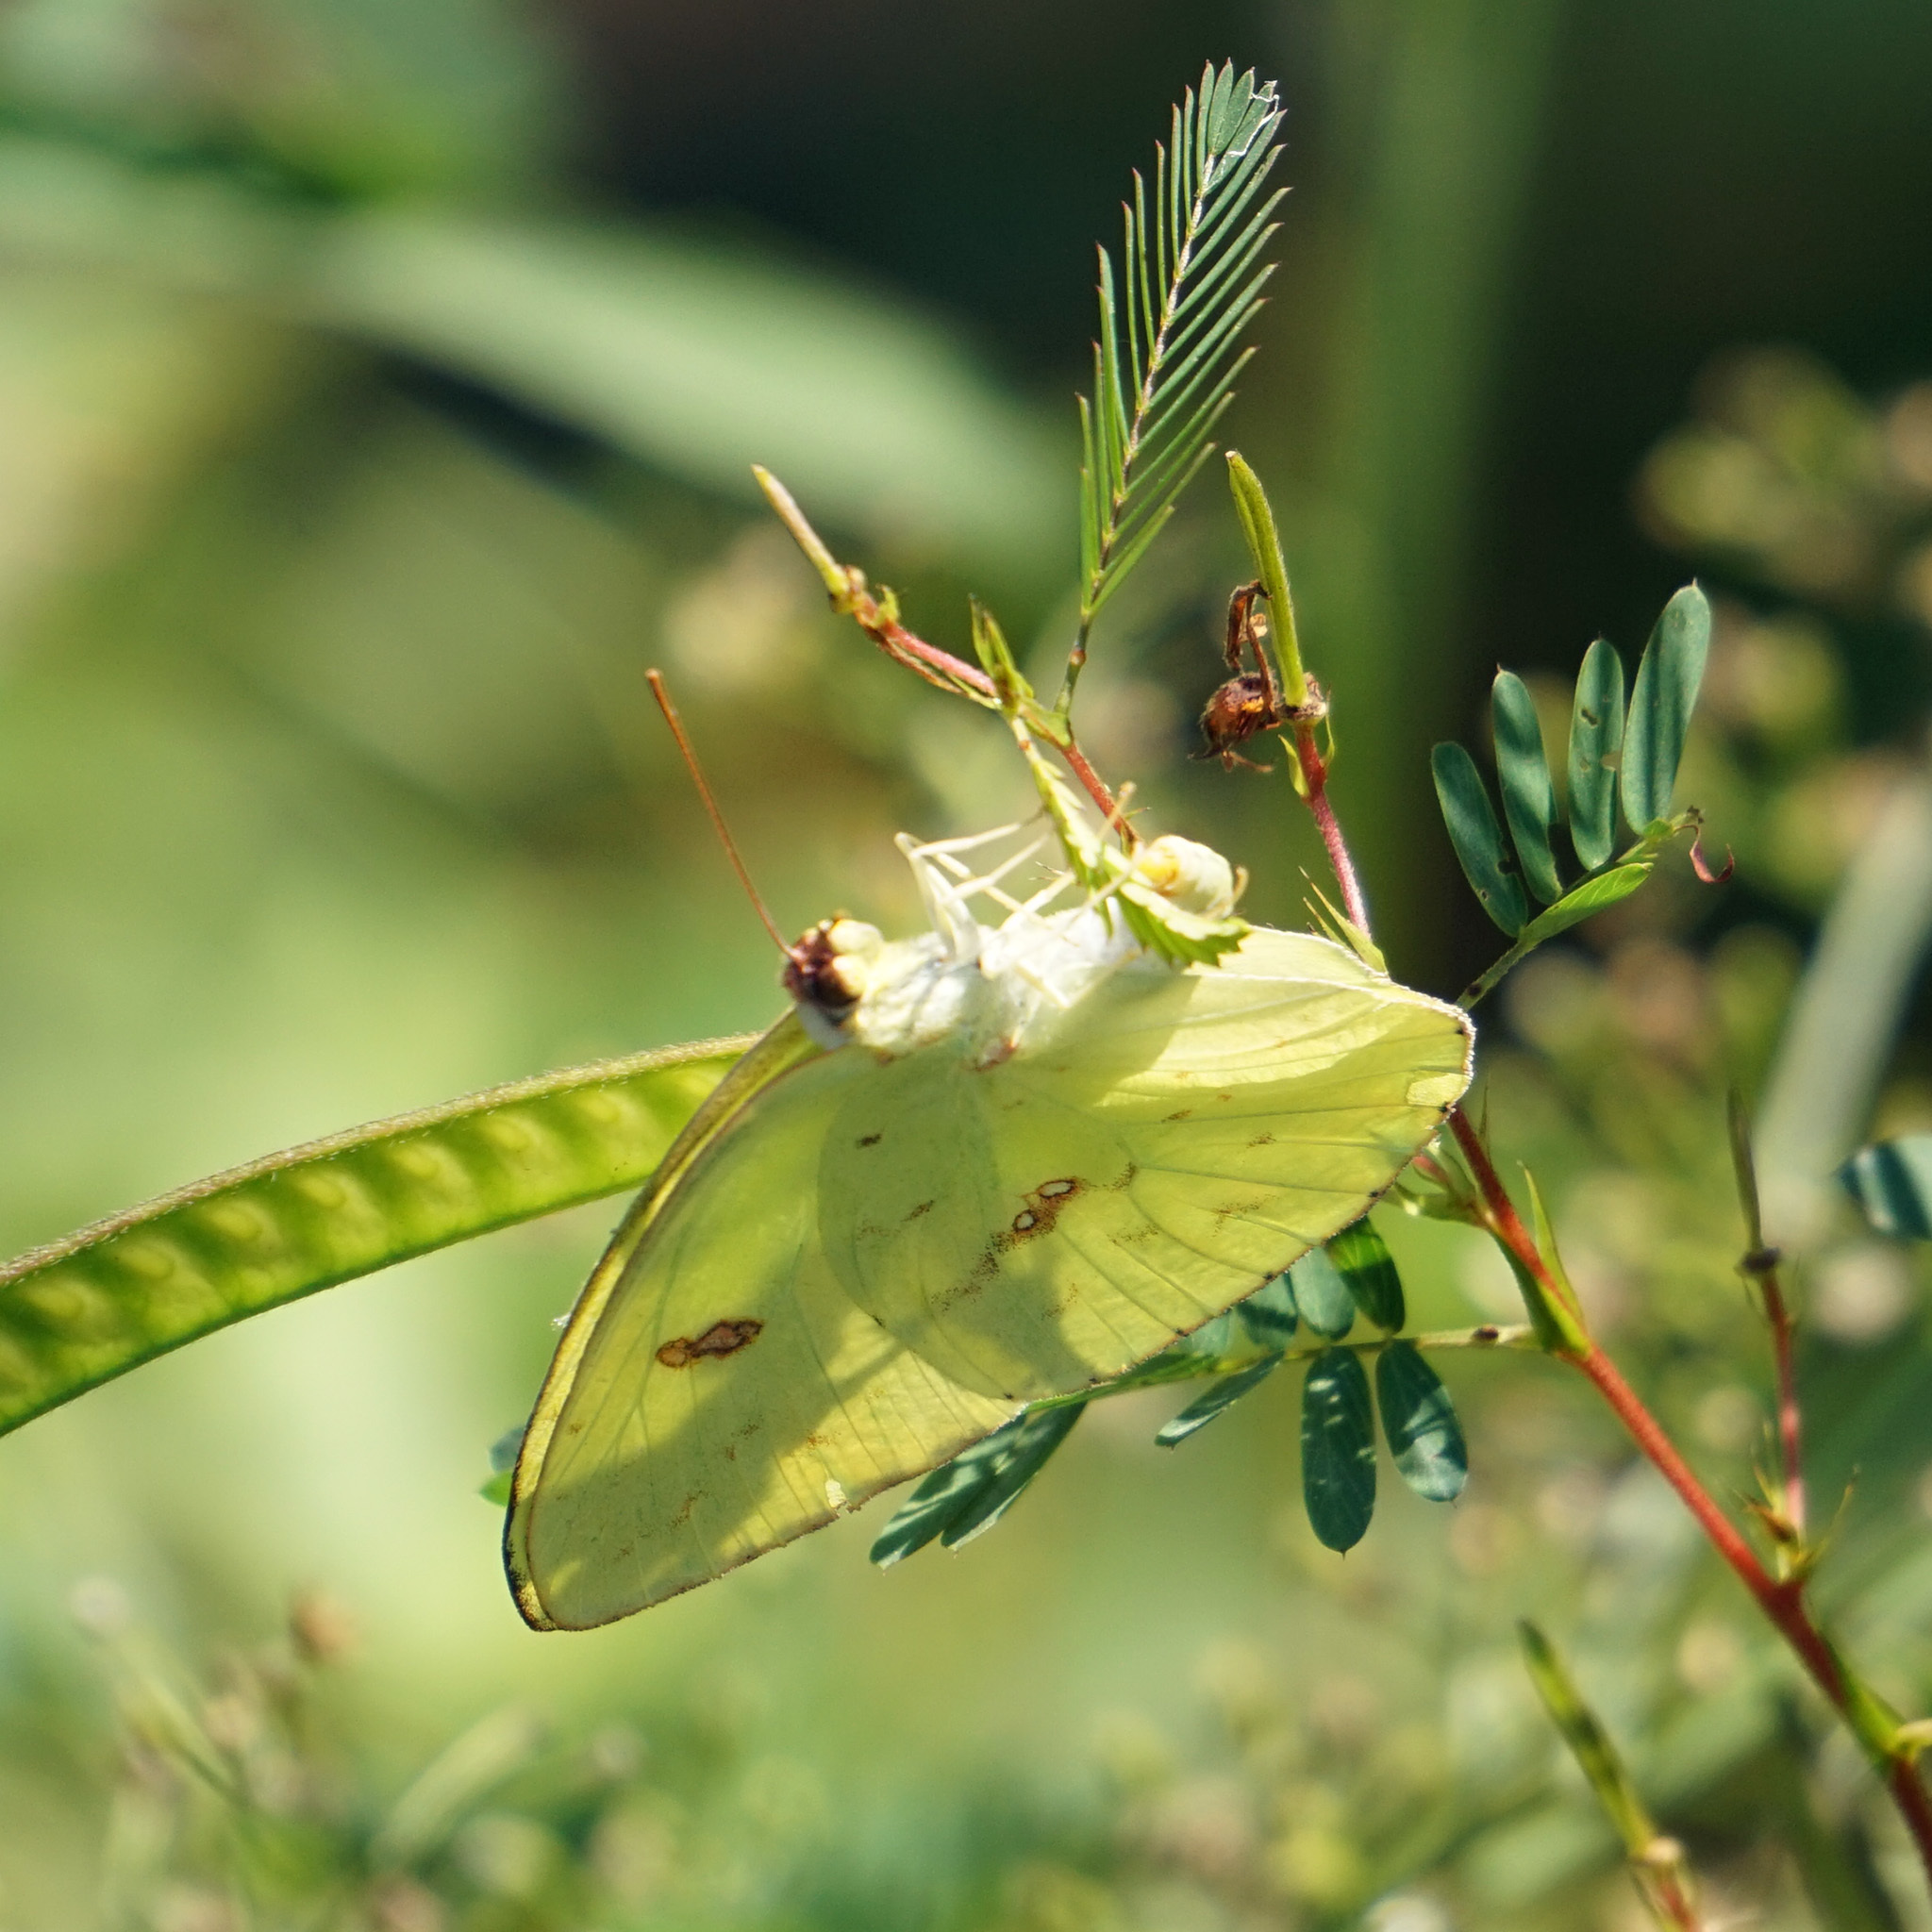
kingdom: Animalia
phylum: Arthropoda
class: Insecta
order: Lepidoptera
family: Pieridae
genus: Phoebis
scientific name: Phoebis sennae
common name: Cloudless sulphur
